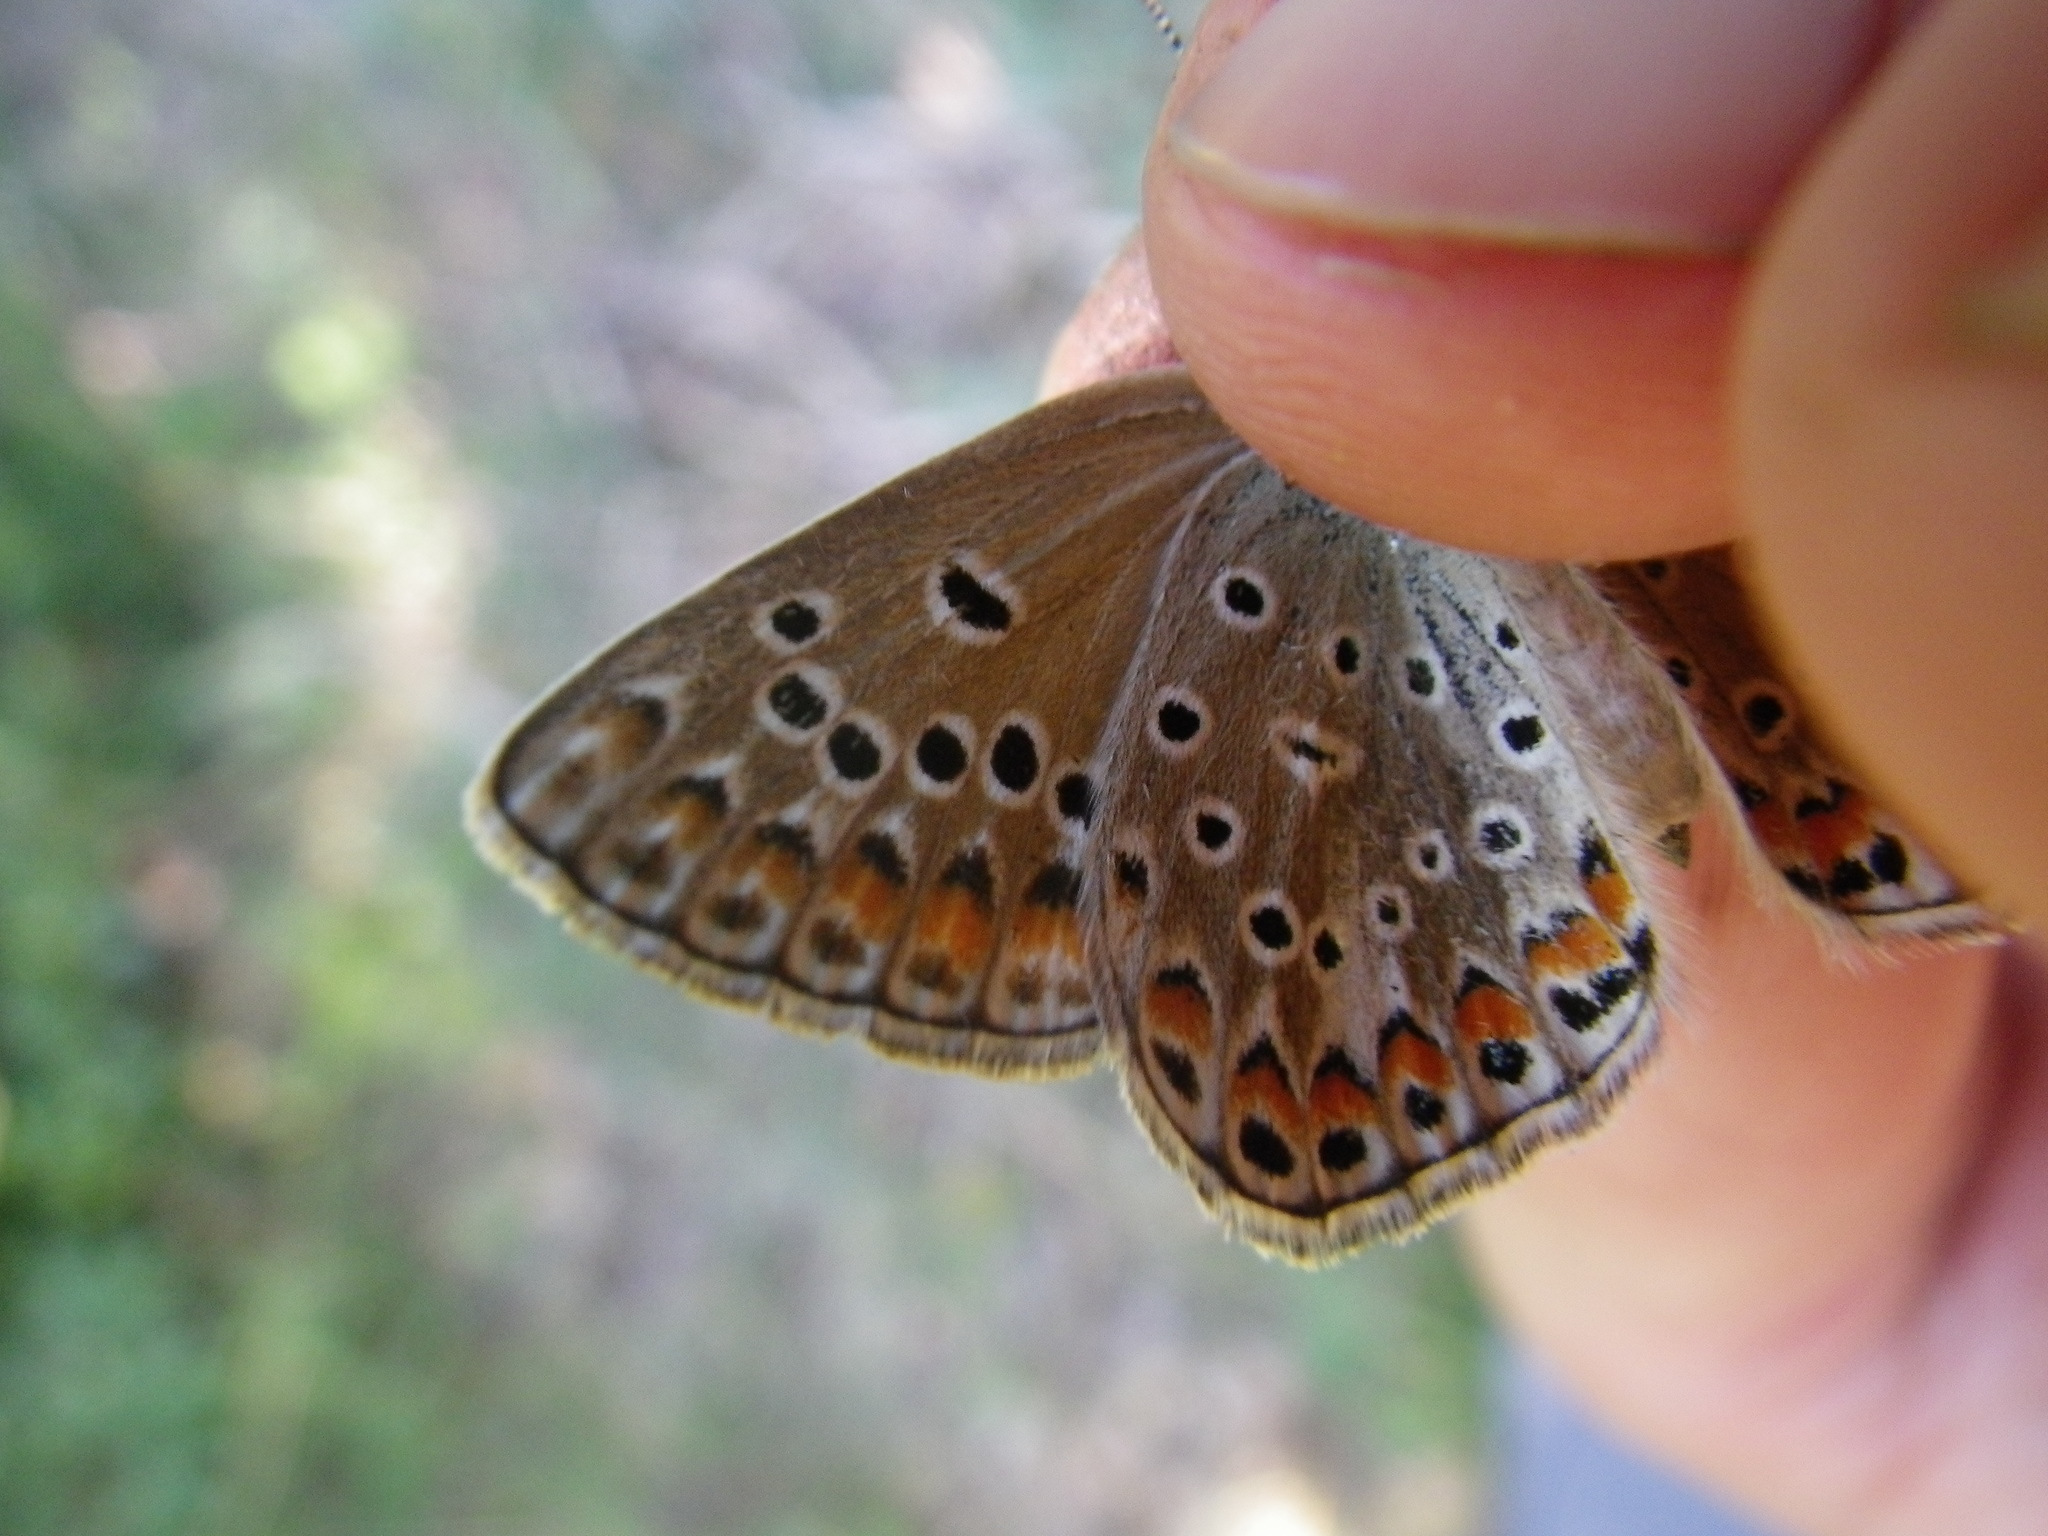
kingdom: Animalia
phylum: Arthropoda
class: Insecta
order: Lepidoptera
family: Lycaenidae
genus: Plebicula
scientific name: Plebicula escheri
